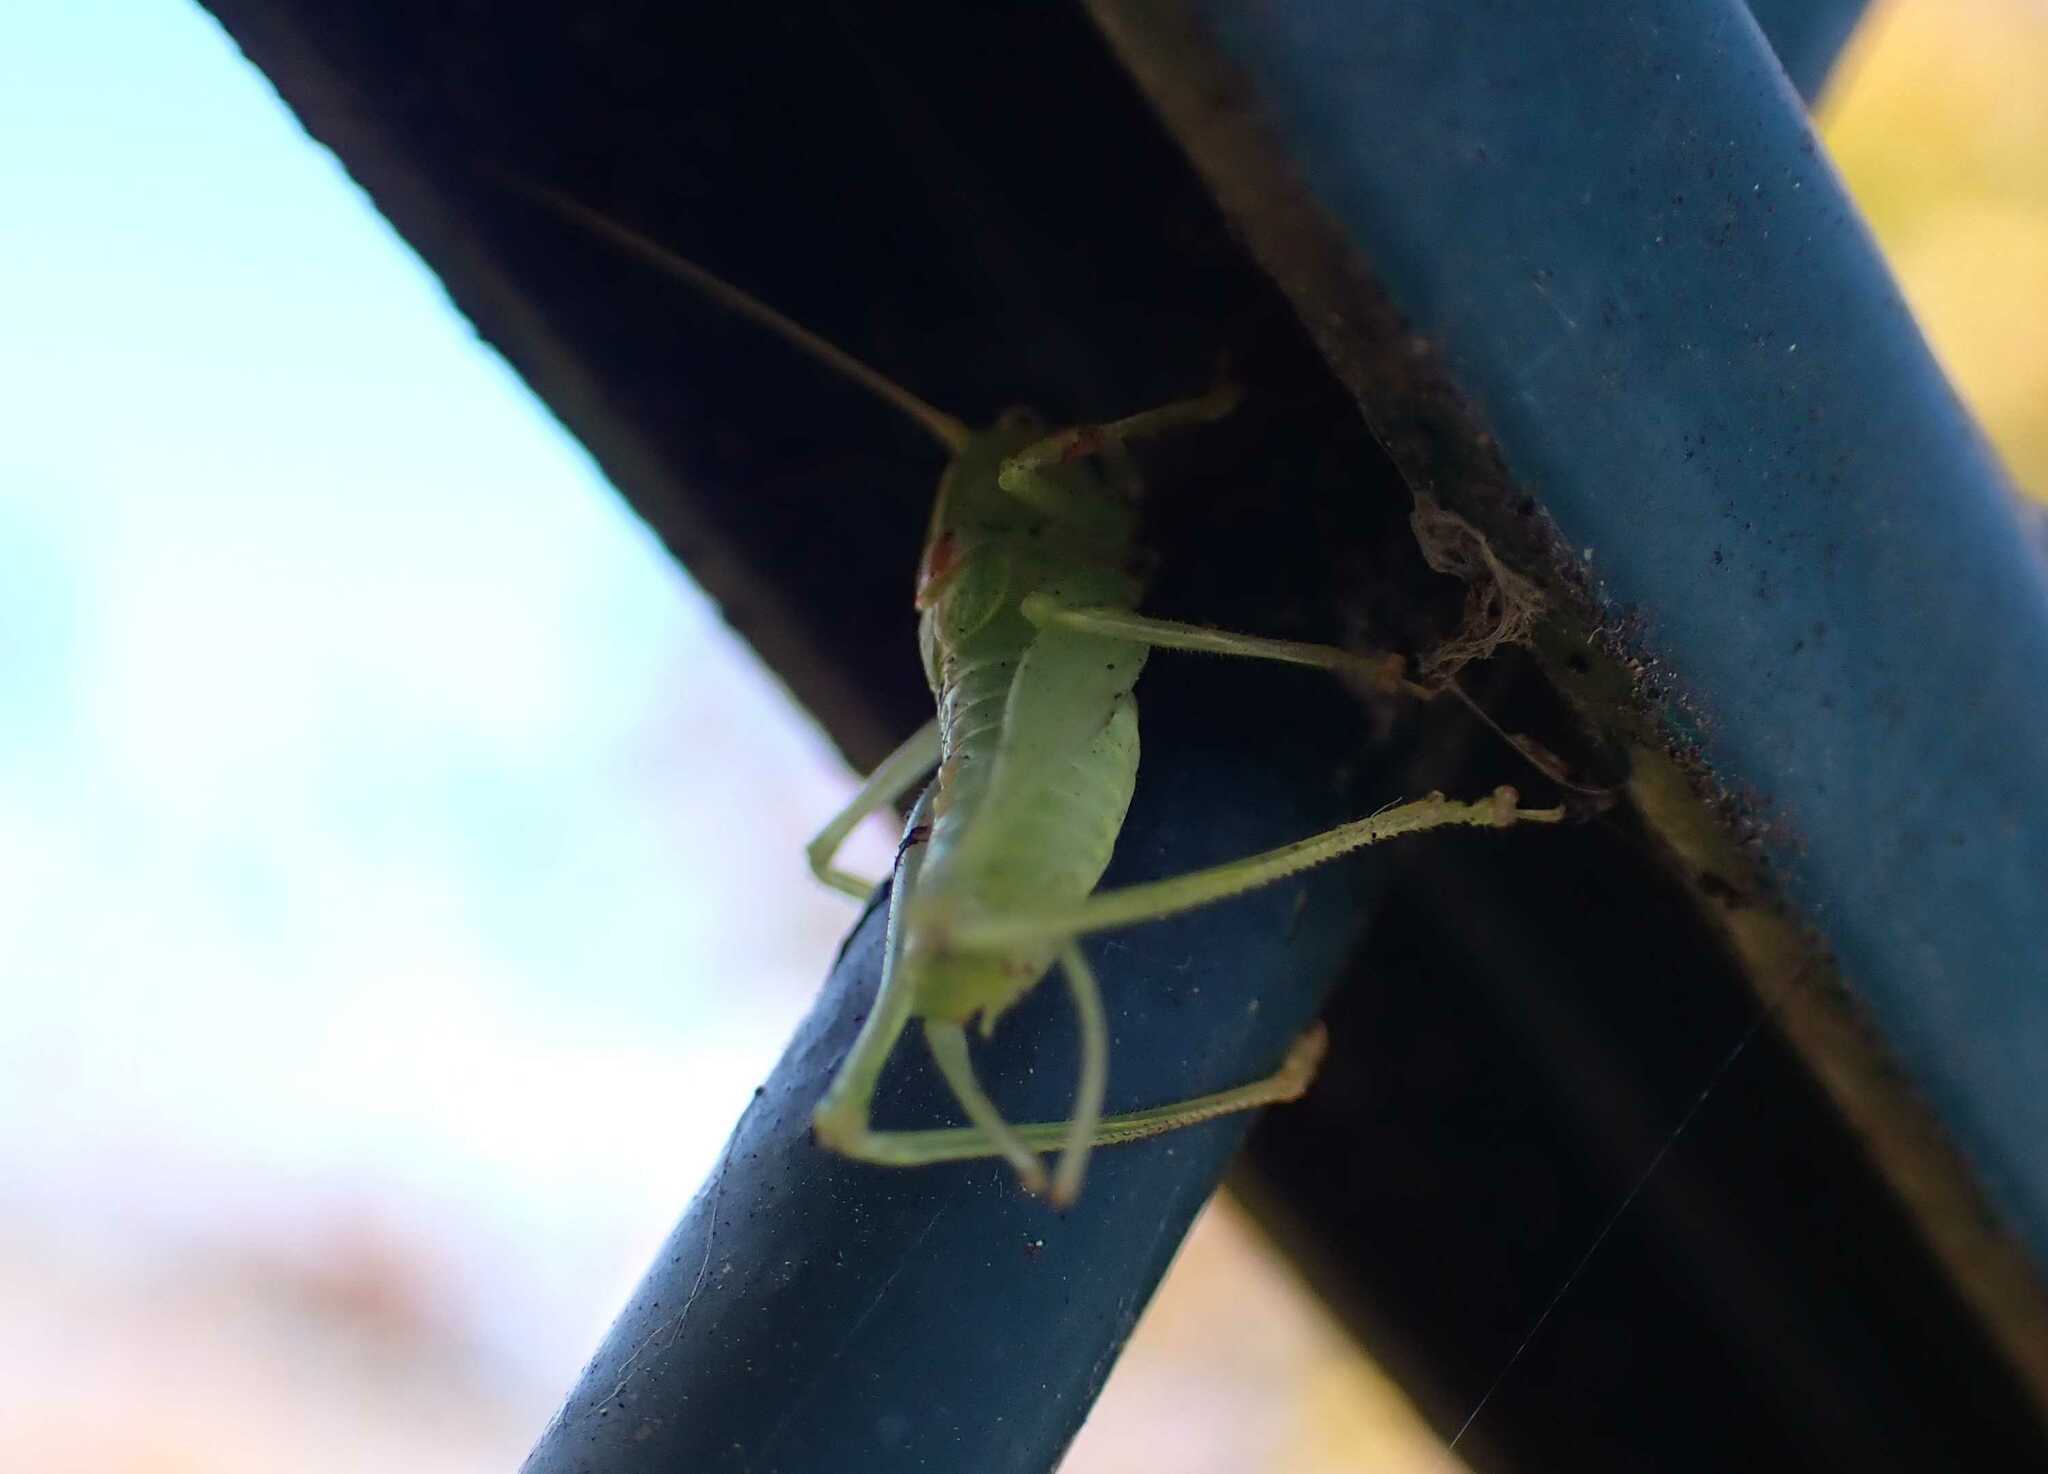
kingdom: Animalia
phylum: Arthropoda
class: Insecta
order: Orthoptera
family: Tettigoniidae
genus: Meconema
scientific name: Meconema meridionale
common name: Southern oak bush-cricket
